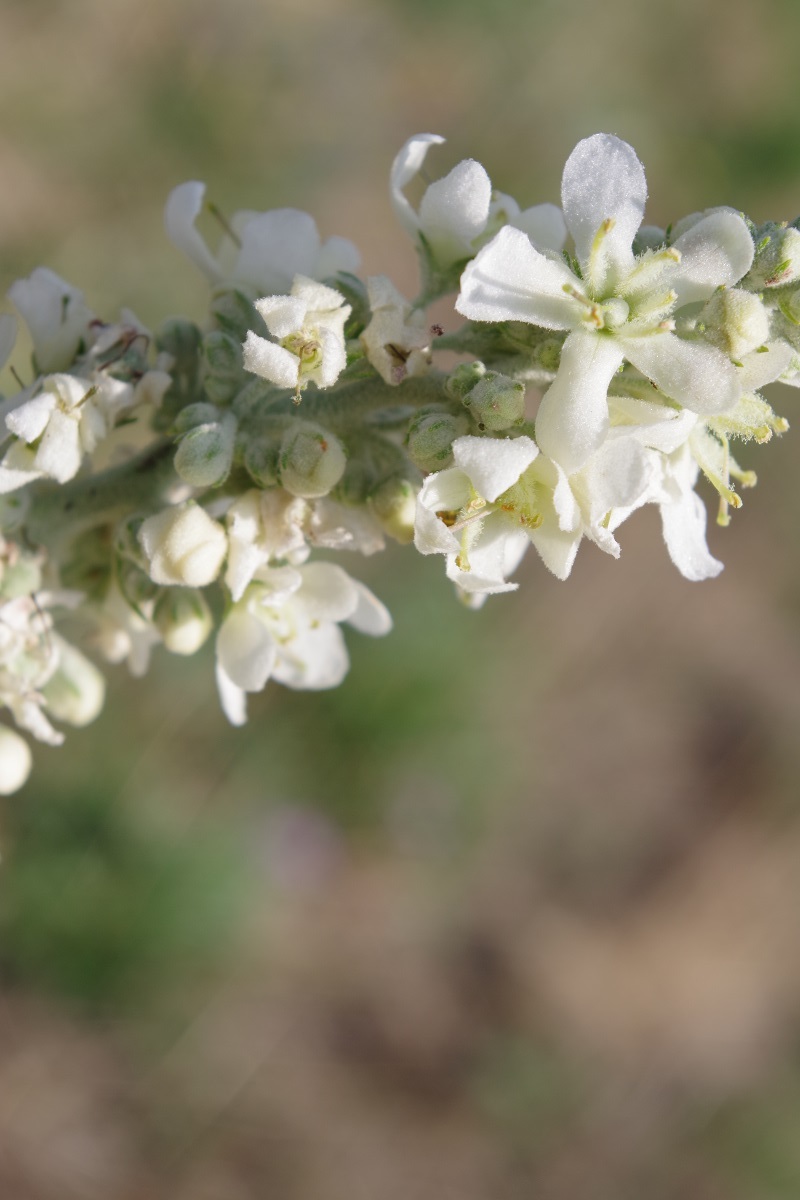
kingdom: Plantae
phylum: Tracheophyta
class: Magnoliopsida
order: Lamiales
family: Scrophulariaceae
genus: Verbascum
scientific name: Verbascum lychnitis
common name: White mullein
